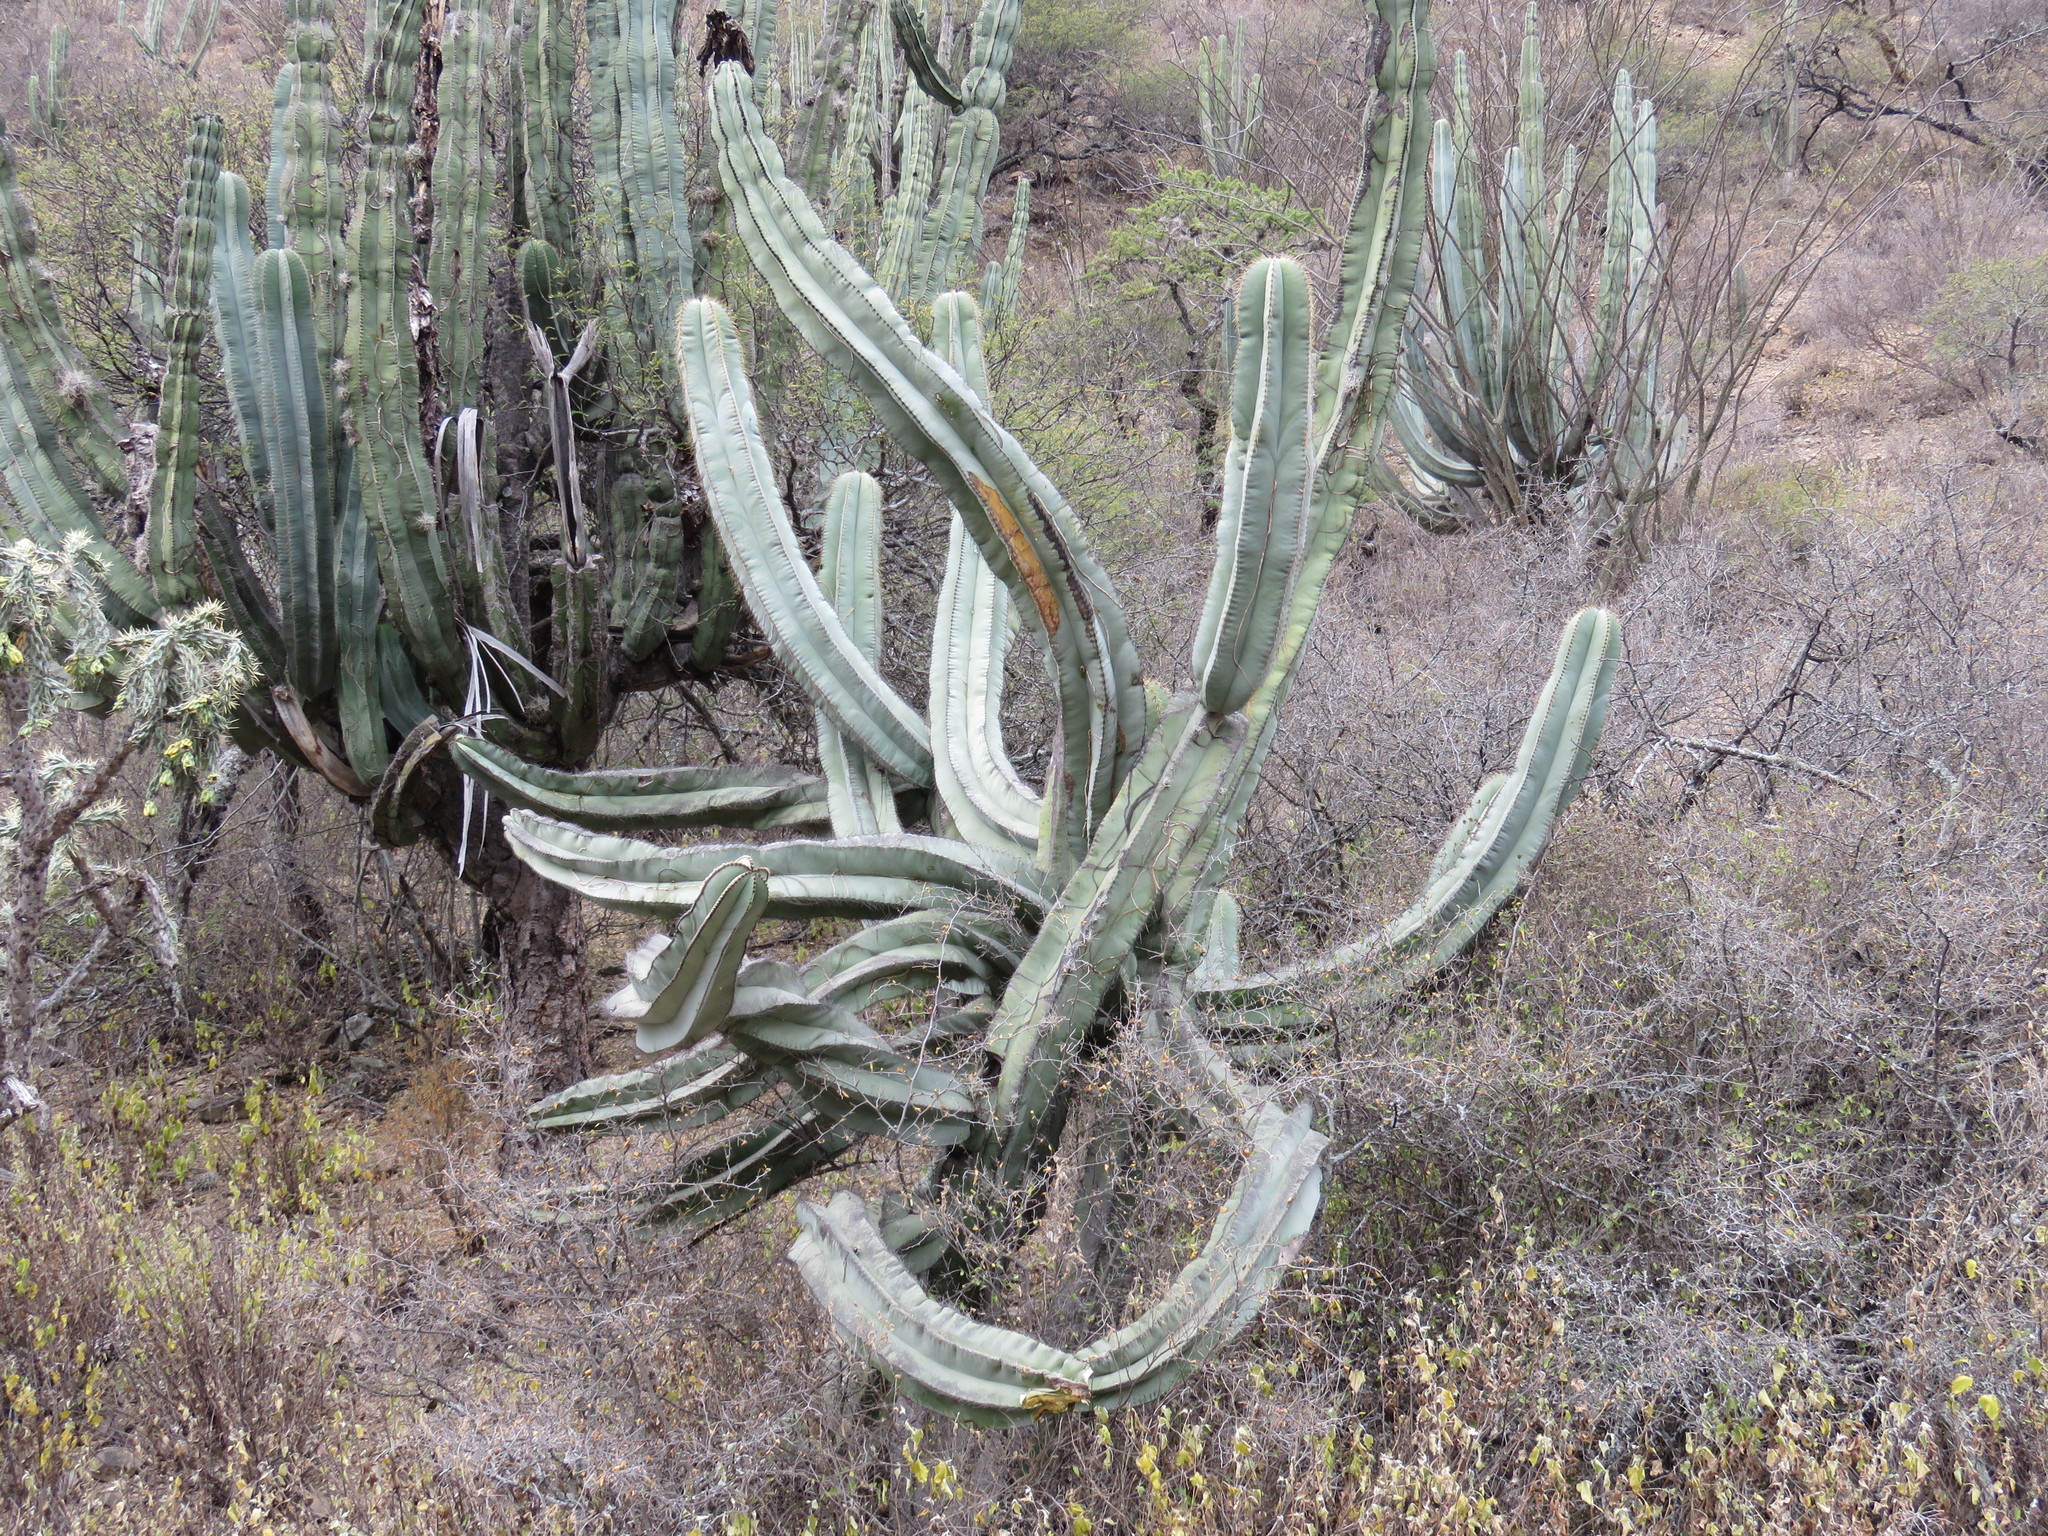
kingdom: Plantae
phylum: Tracheophyta
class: Magnoliopsida
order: Caryophyllales
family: Cactaceae
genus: Stenocereus
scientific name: Stenocereus dumortieri
